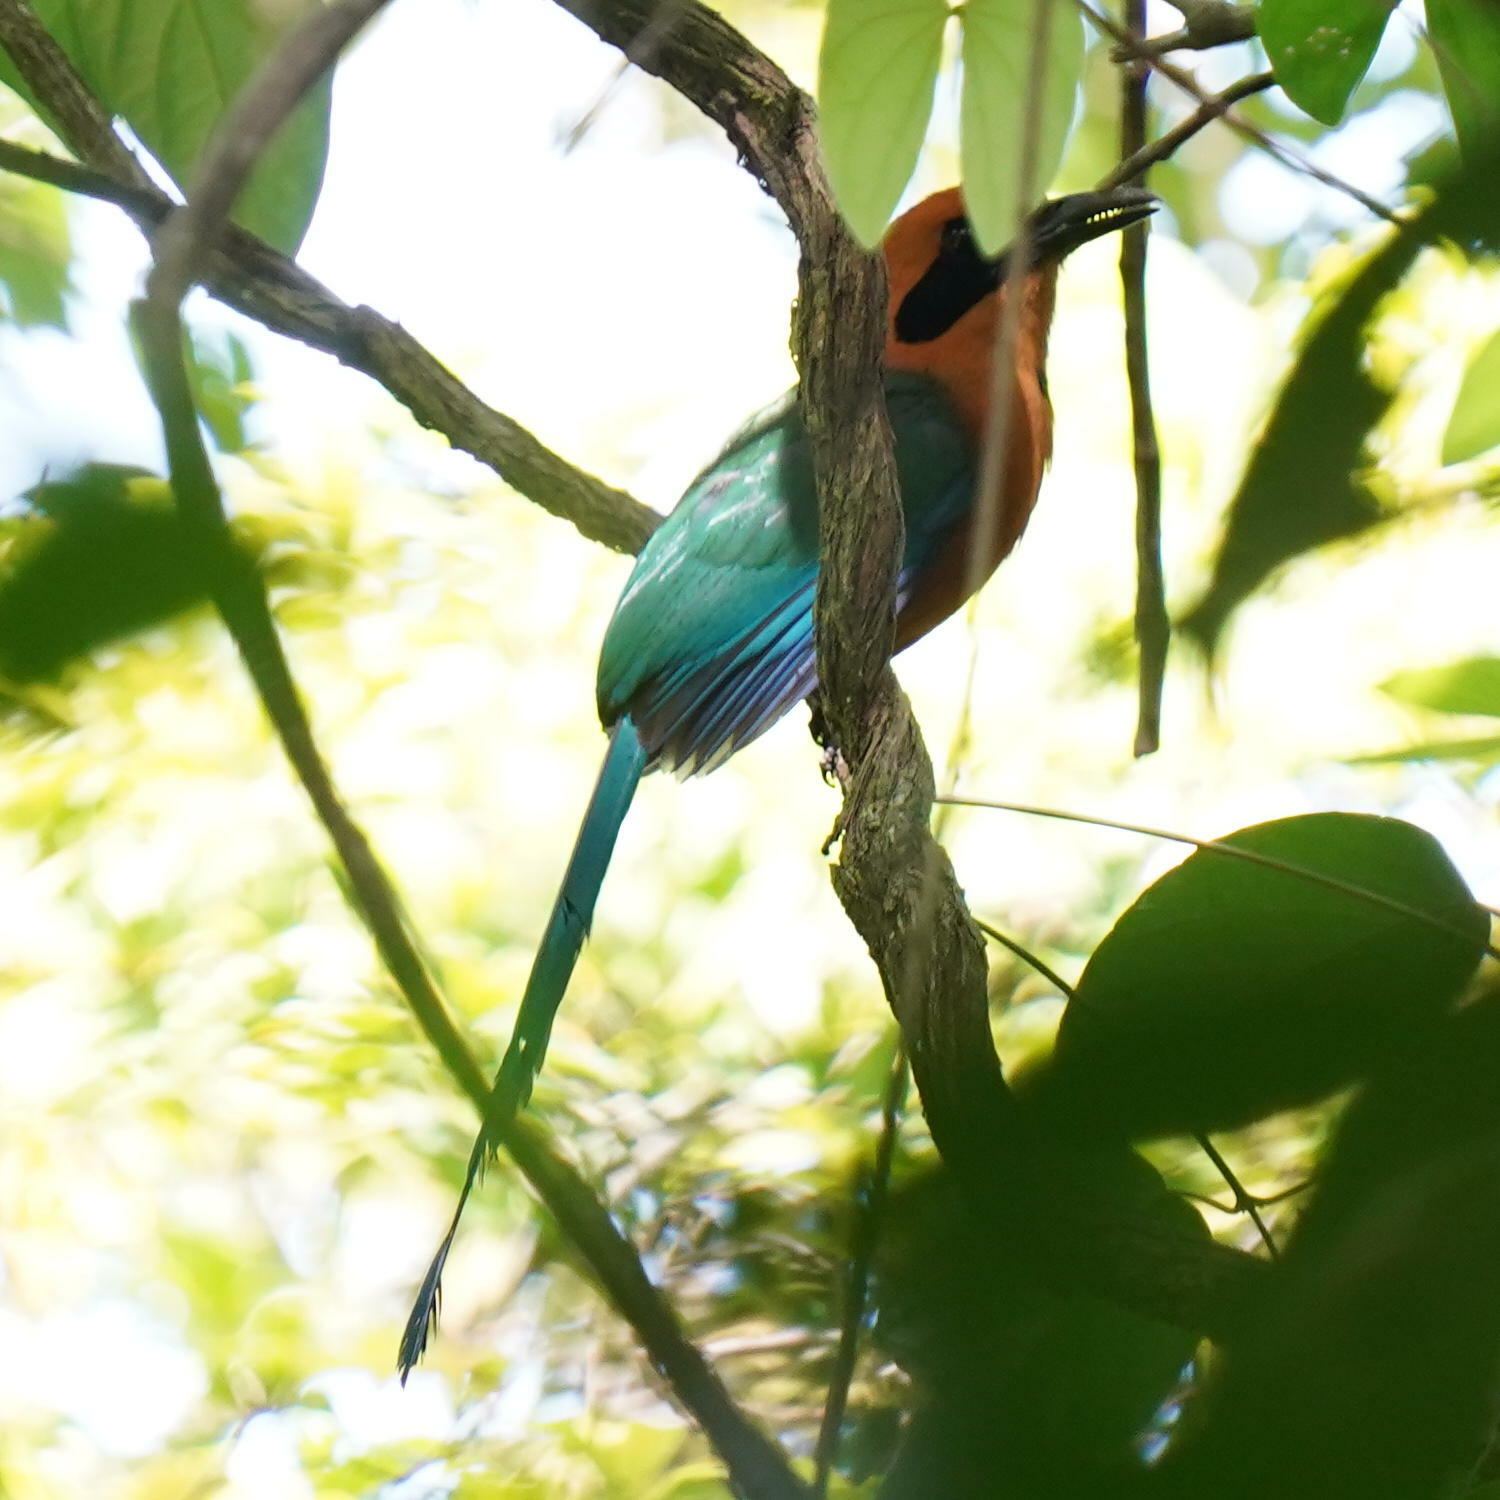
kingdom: Animalia
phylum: Chordata
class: Aves
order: Coraciiformes
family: Momotidae
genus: Baryphthengus
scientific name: Baryphthengus martii
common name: Rufous motmot
